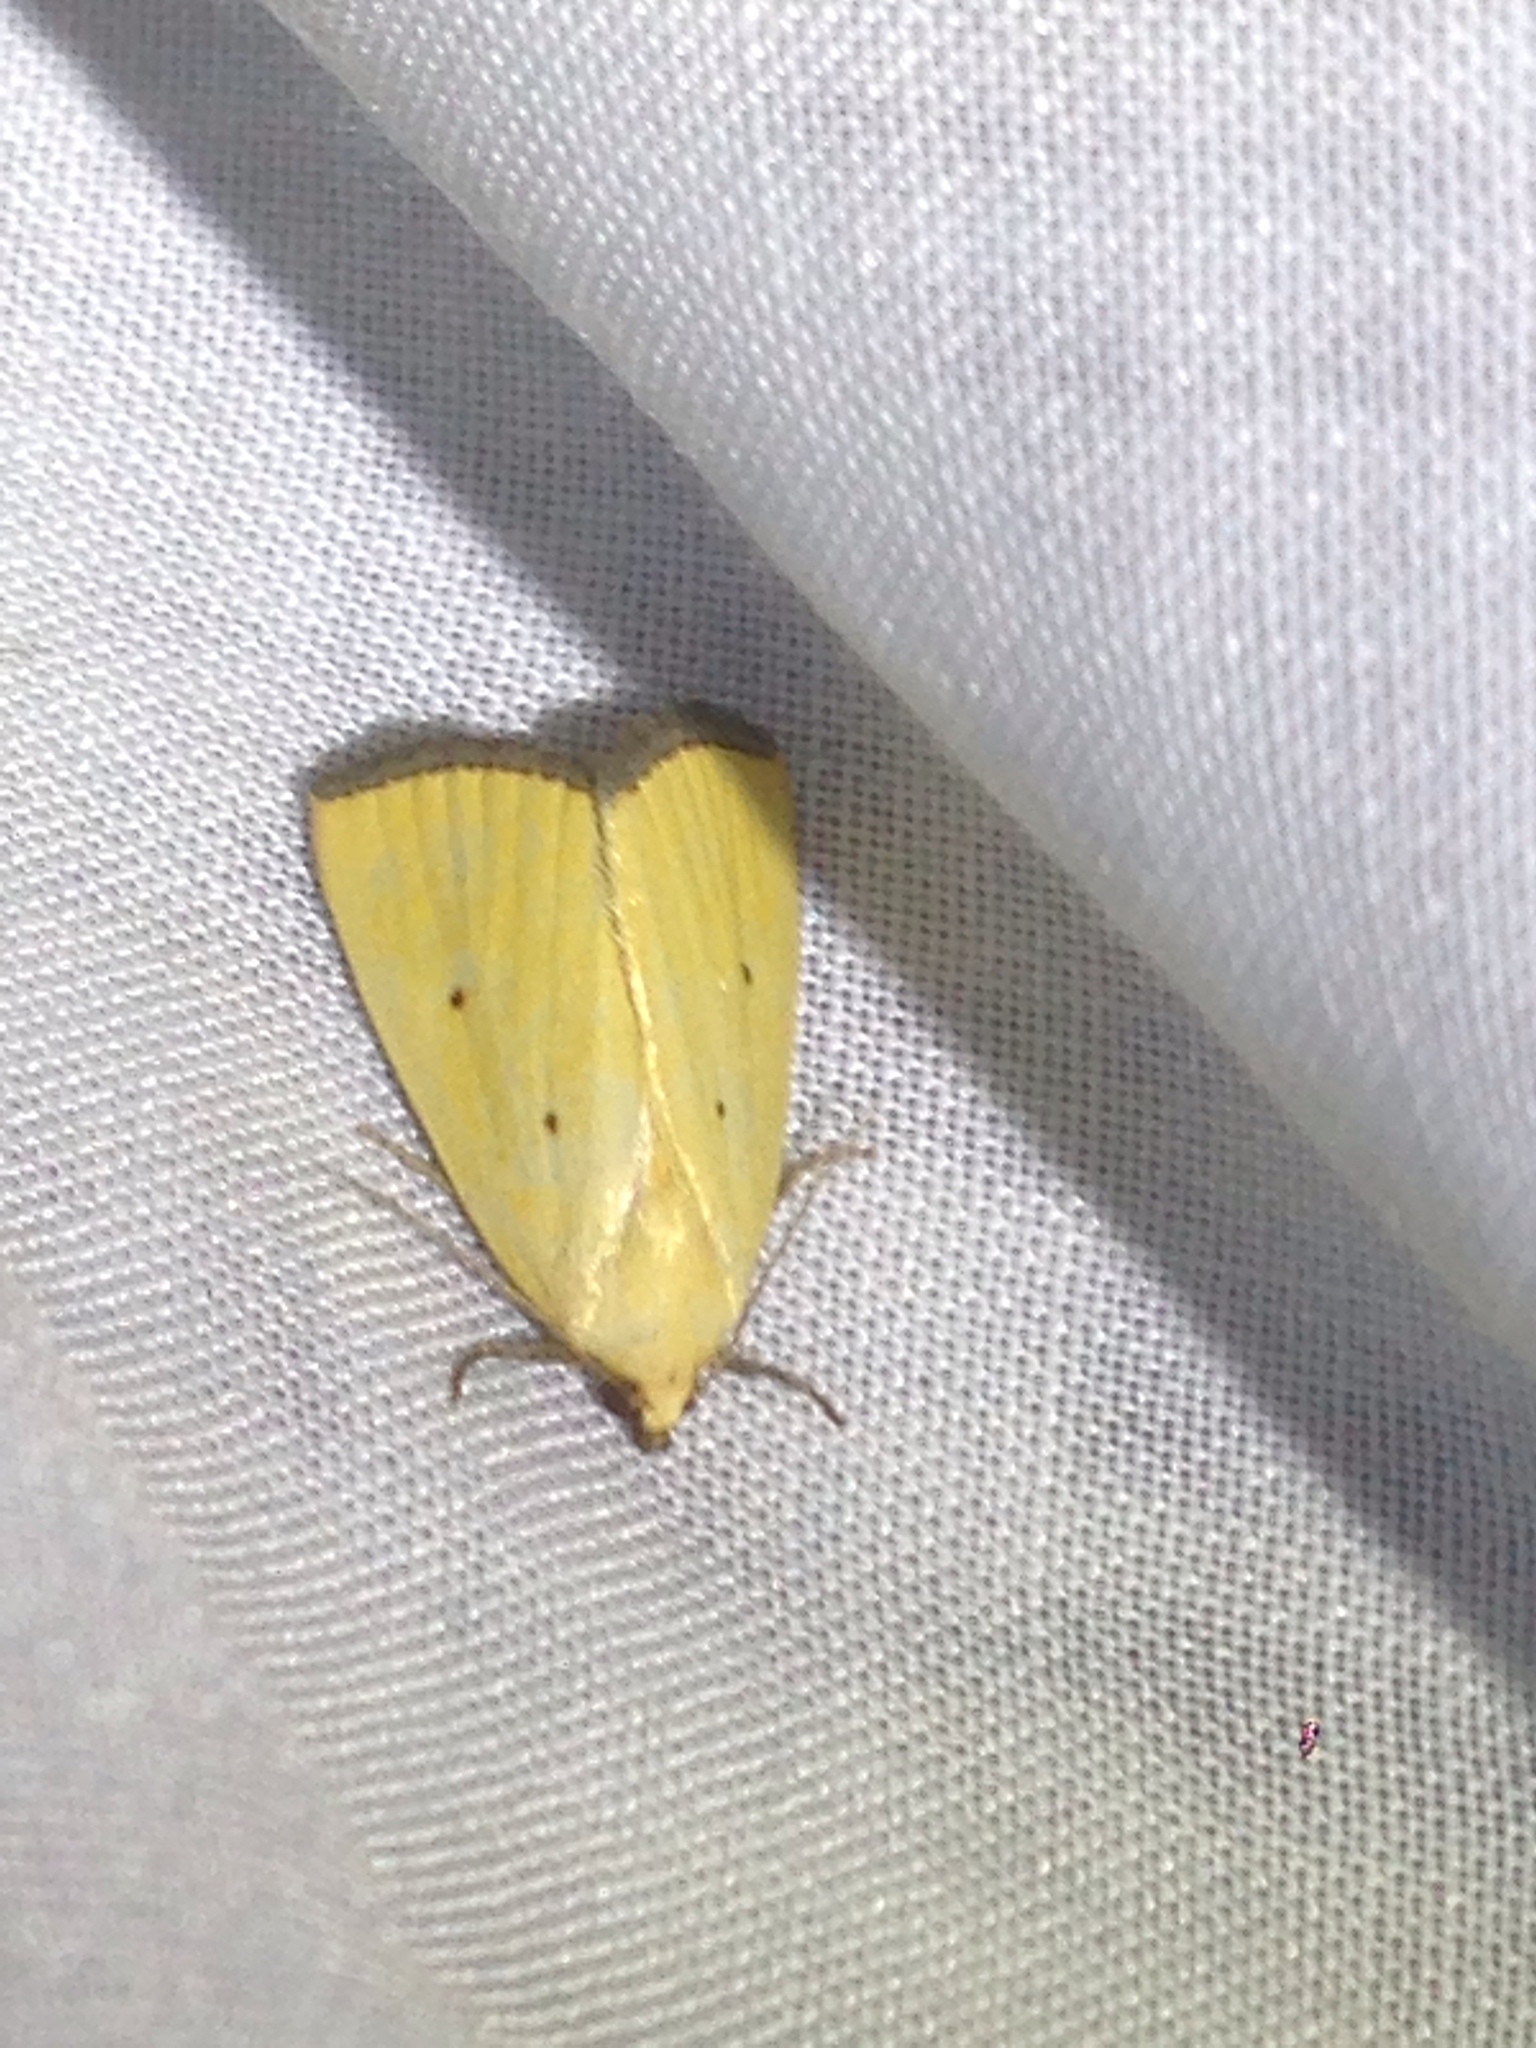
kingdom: Animalia
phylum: Arthropoda
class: Insecta
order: Lepidoptera
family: Noctuidae
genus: Marimatha
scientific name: Marimatha nigrofimbria
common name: Black-bordered lemon moth
